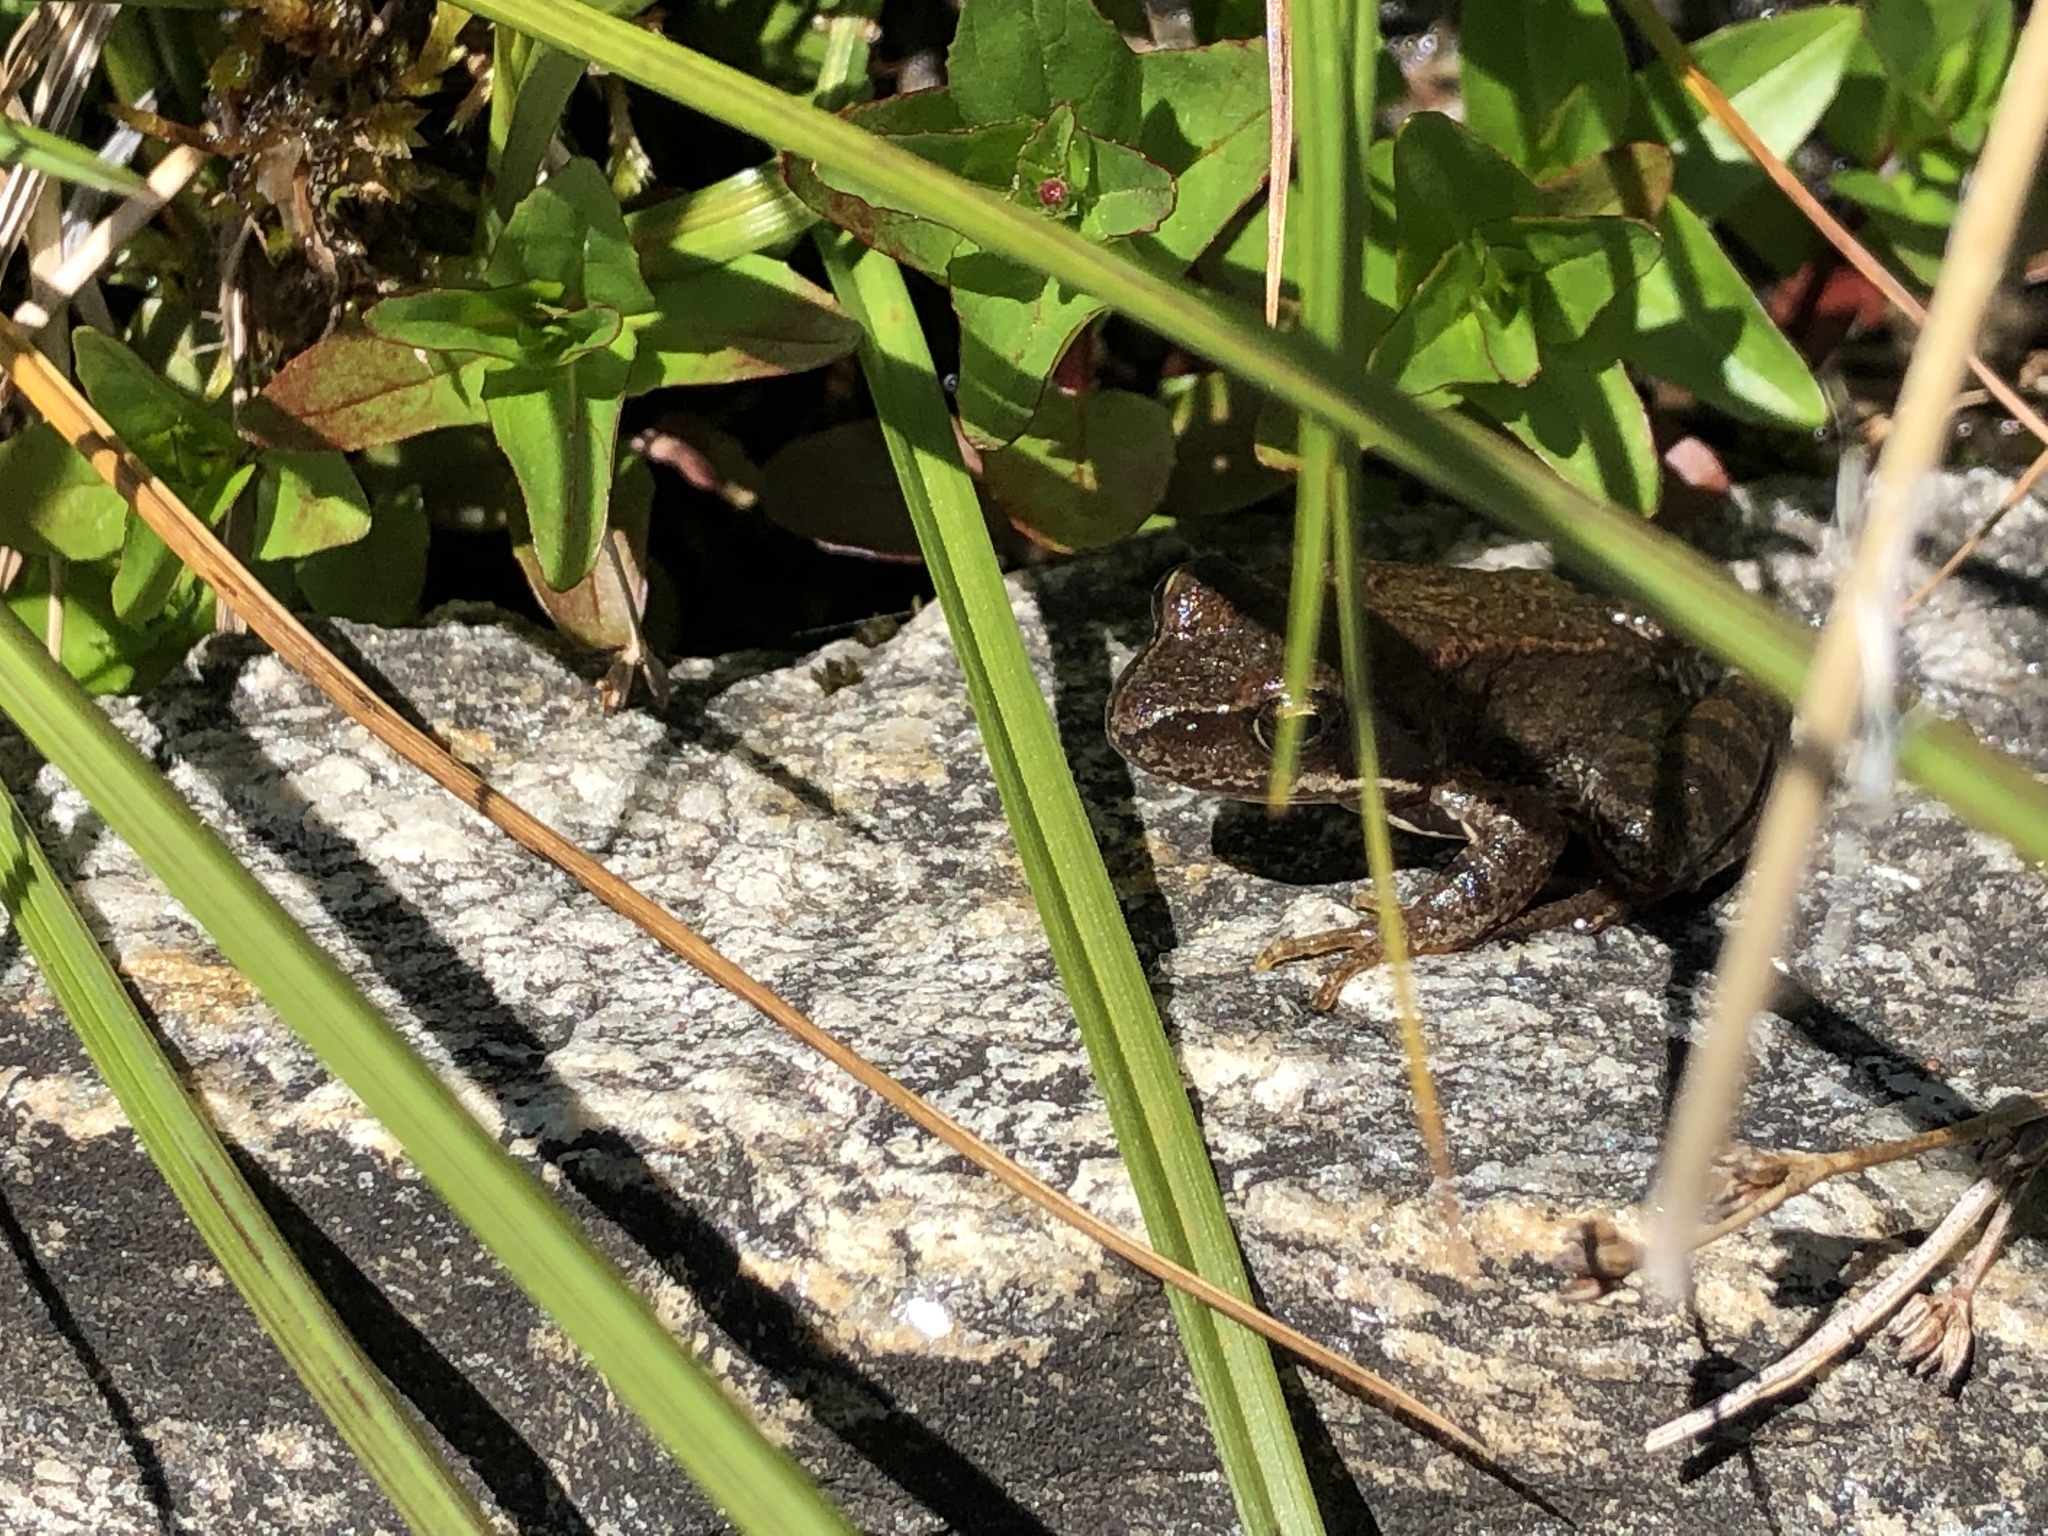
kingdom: Animalia
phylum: Chordata
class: Amphibia
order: Anura
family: Ranidae
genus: Rana
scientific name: Rana temporaria
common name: Common frog
